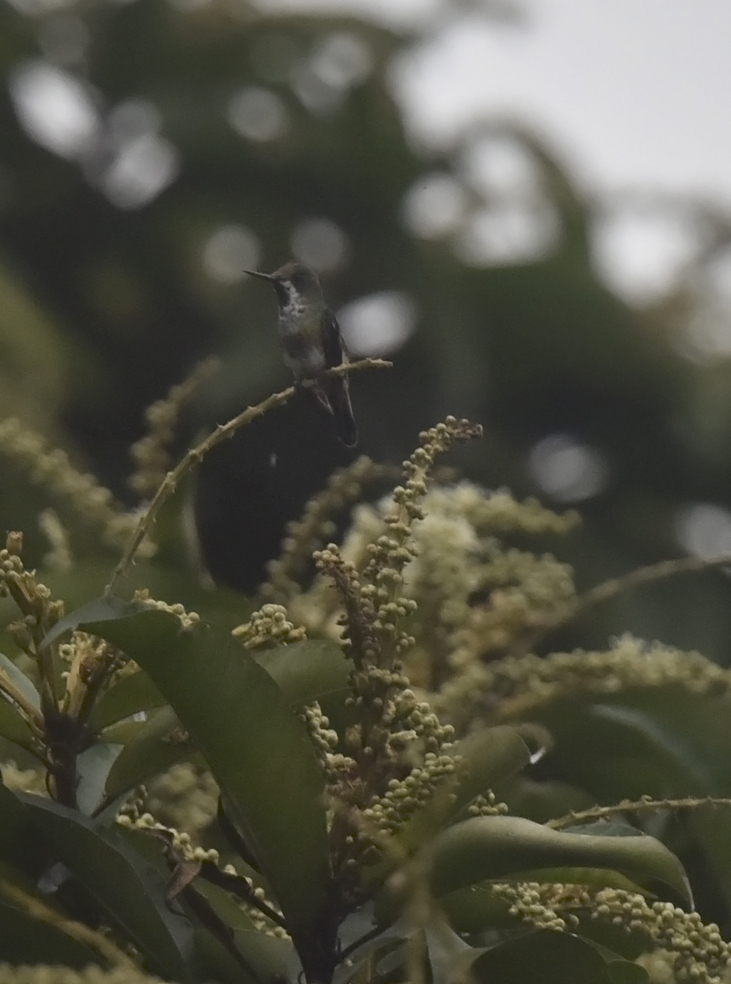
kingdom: Animalia
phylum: Chordata
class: Aves
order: Apodiformes
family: Trochilidae
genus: Discosura
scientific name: Discosura longicaudus
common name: Racket-tailed coquette
